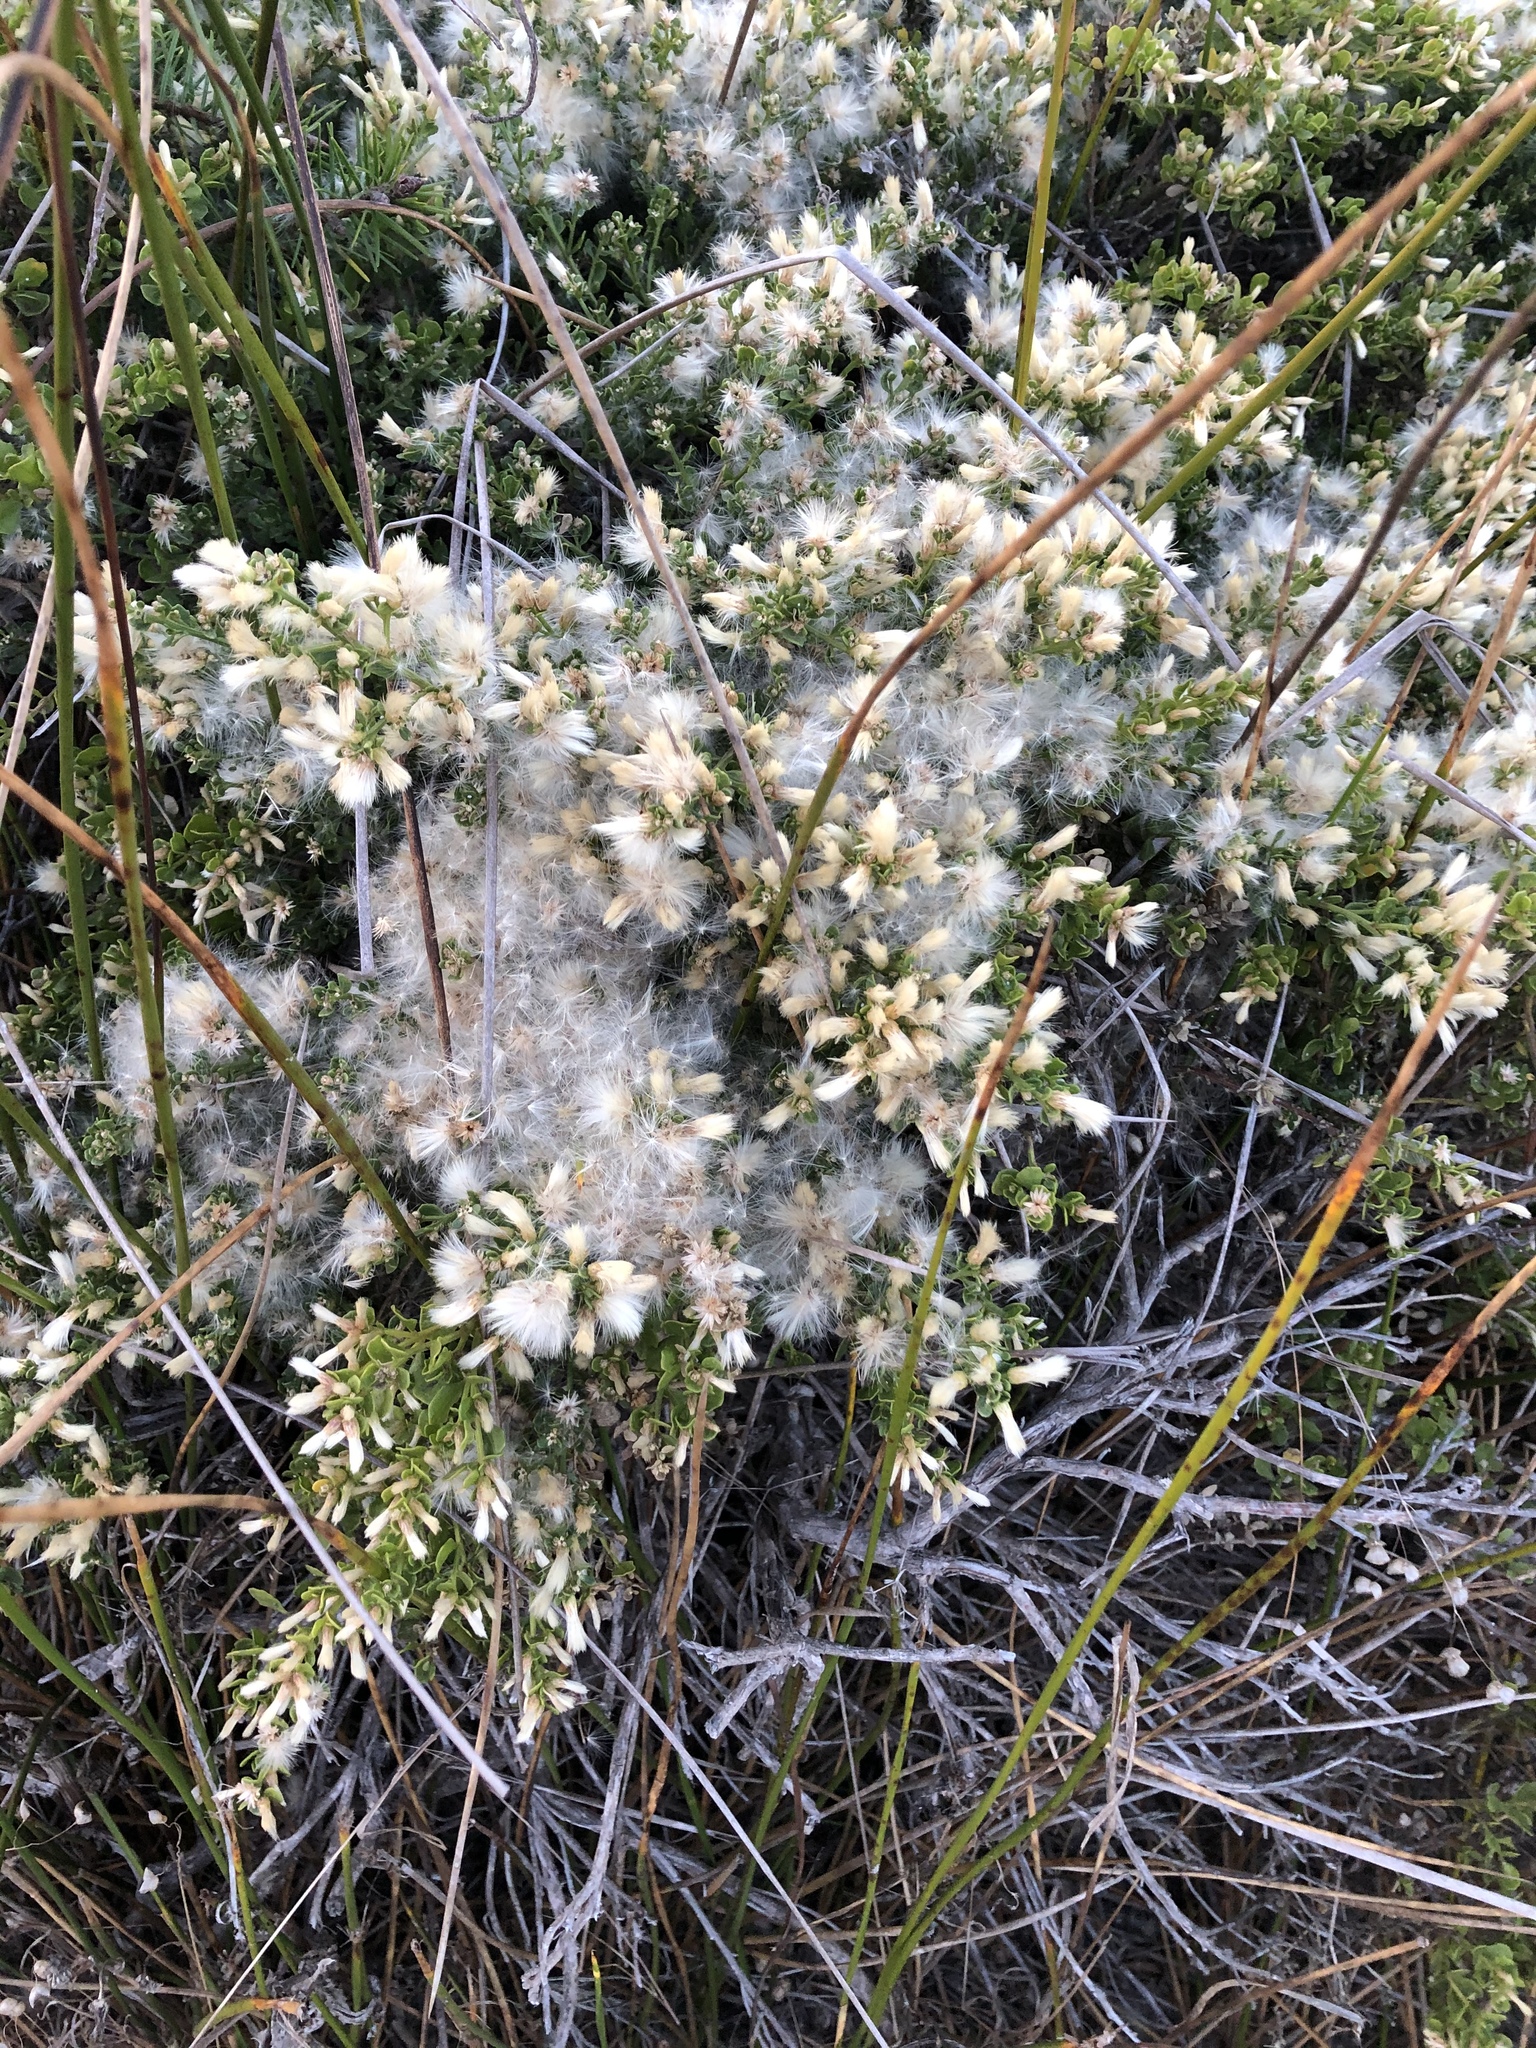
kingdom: Plantae
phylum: Tracheophyta
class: Magnoliopsida
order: Asterales
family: Asteraceae
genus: Baccharis
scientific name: Baccharis pilularis
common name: Coyotebrush
